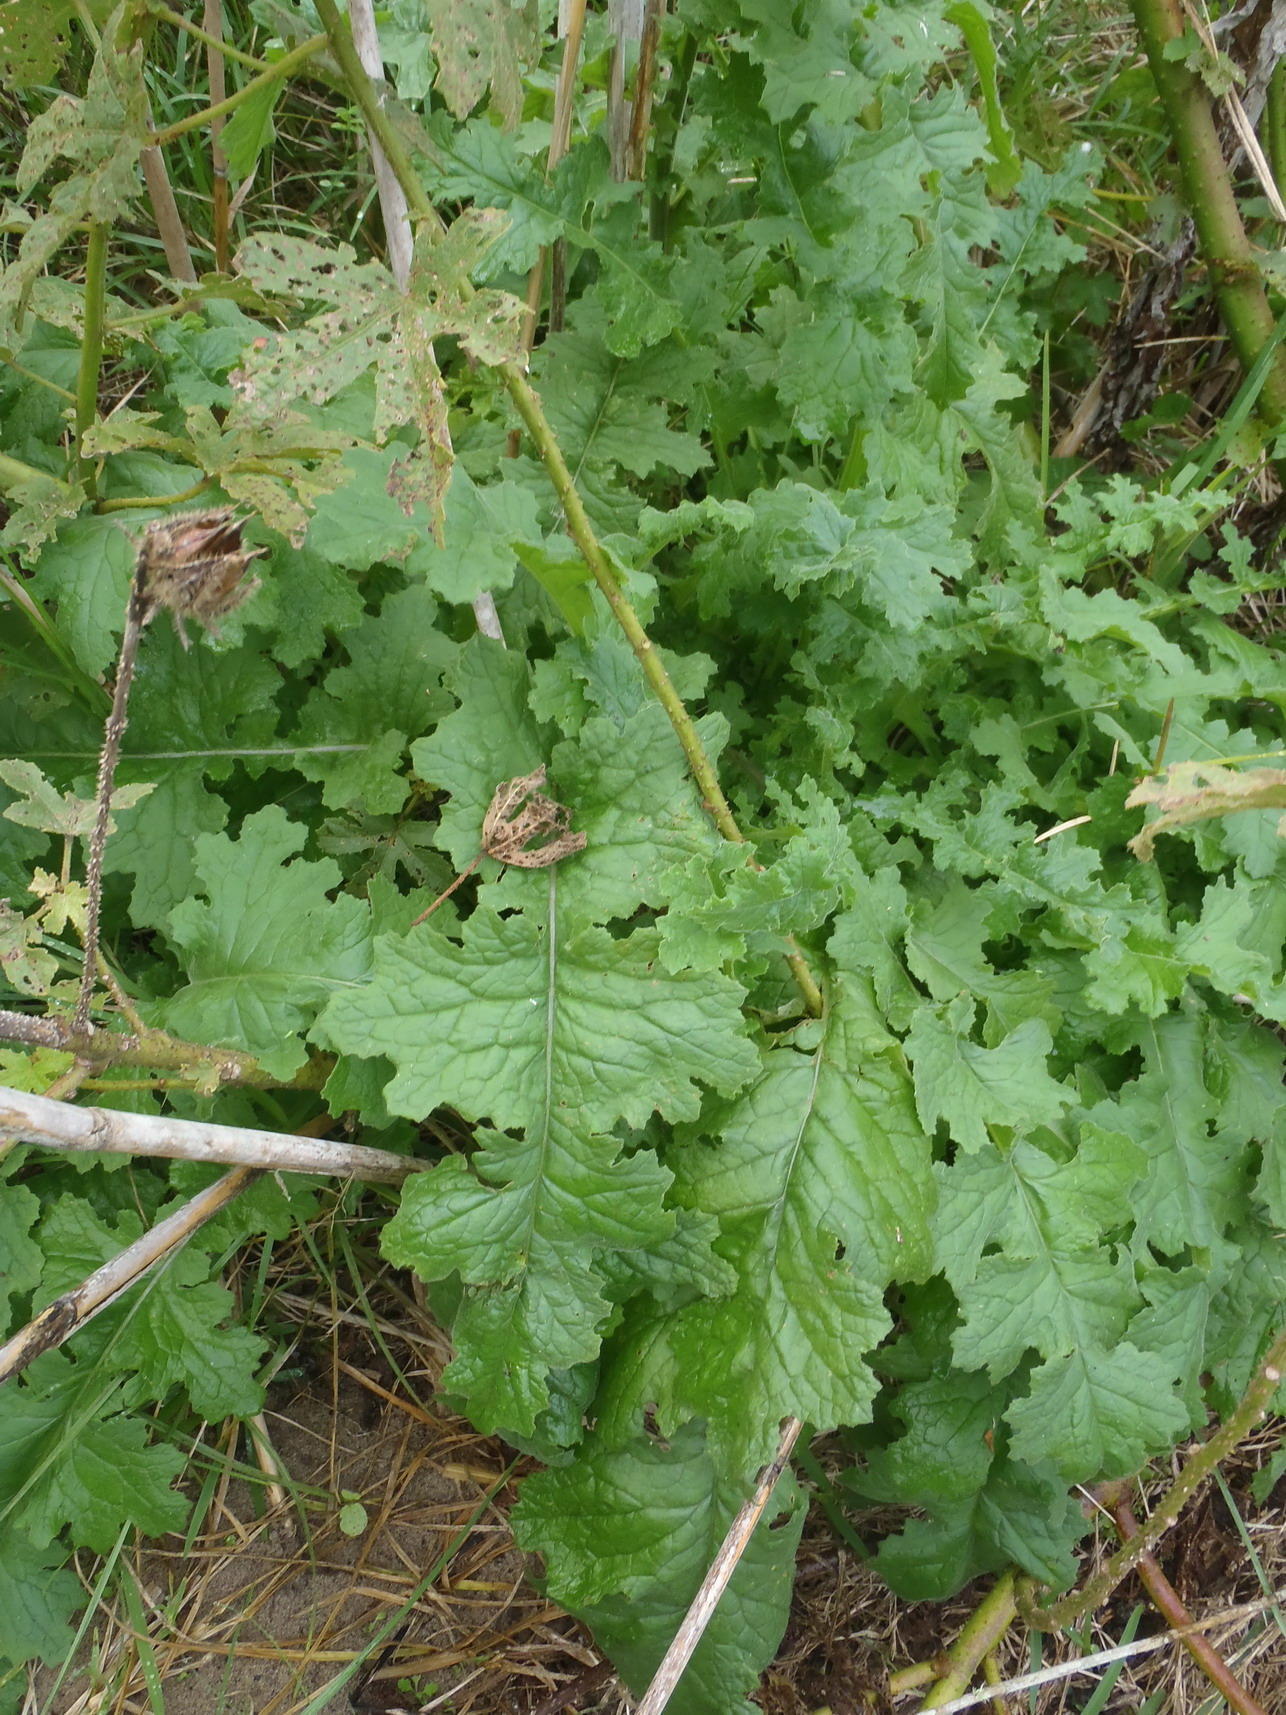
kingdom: Plantae
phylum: Tracheophyta
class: Magnoliopsida
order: Asterales
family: Asteraceae
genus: Senecio
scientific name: Senecio purpureus
